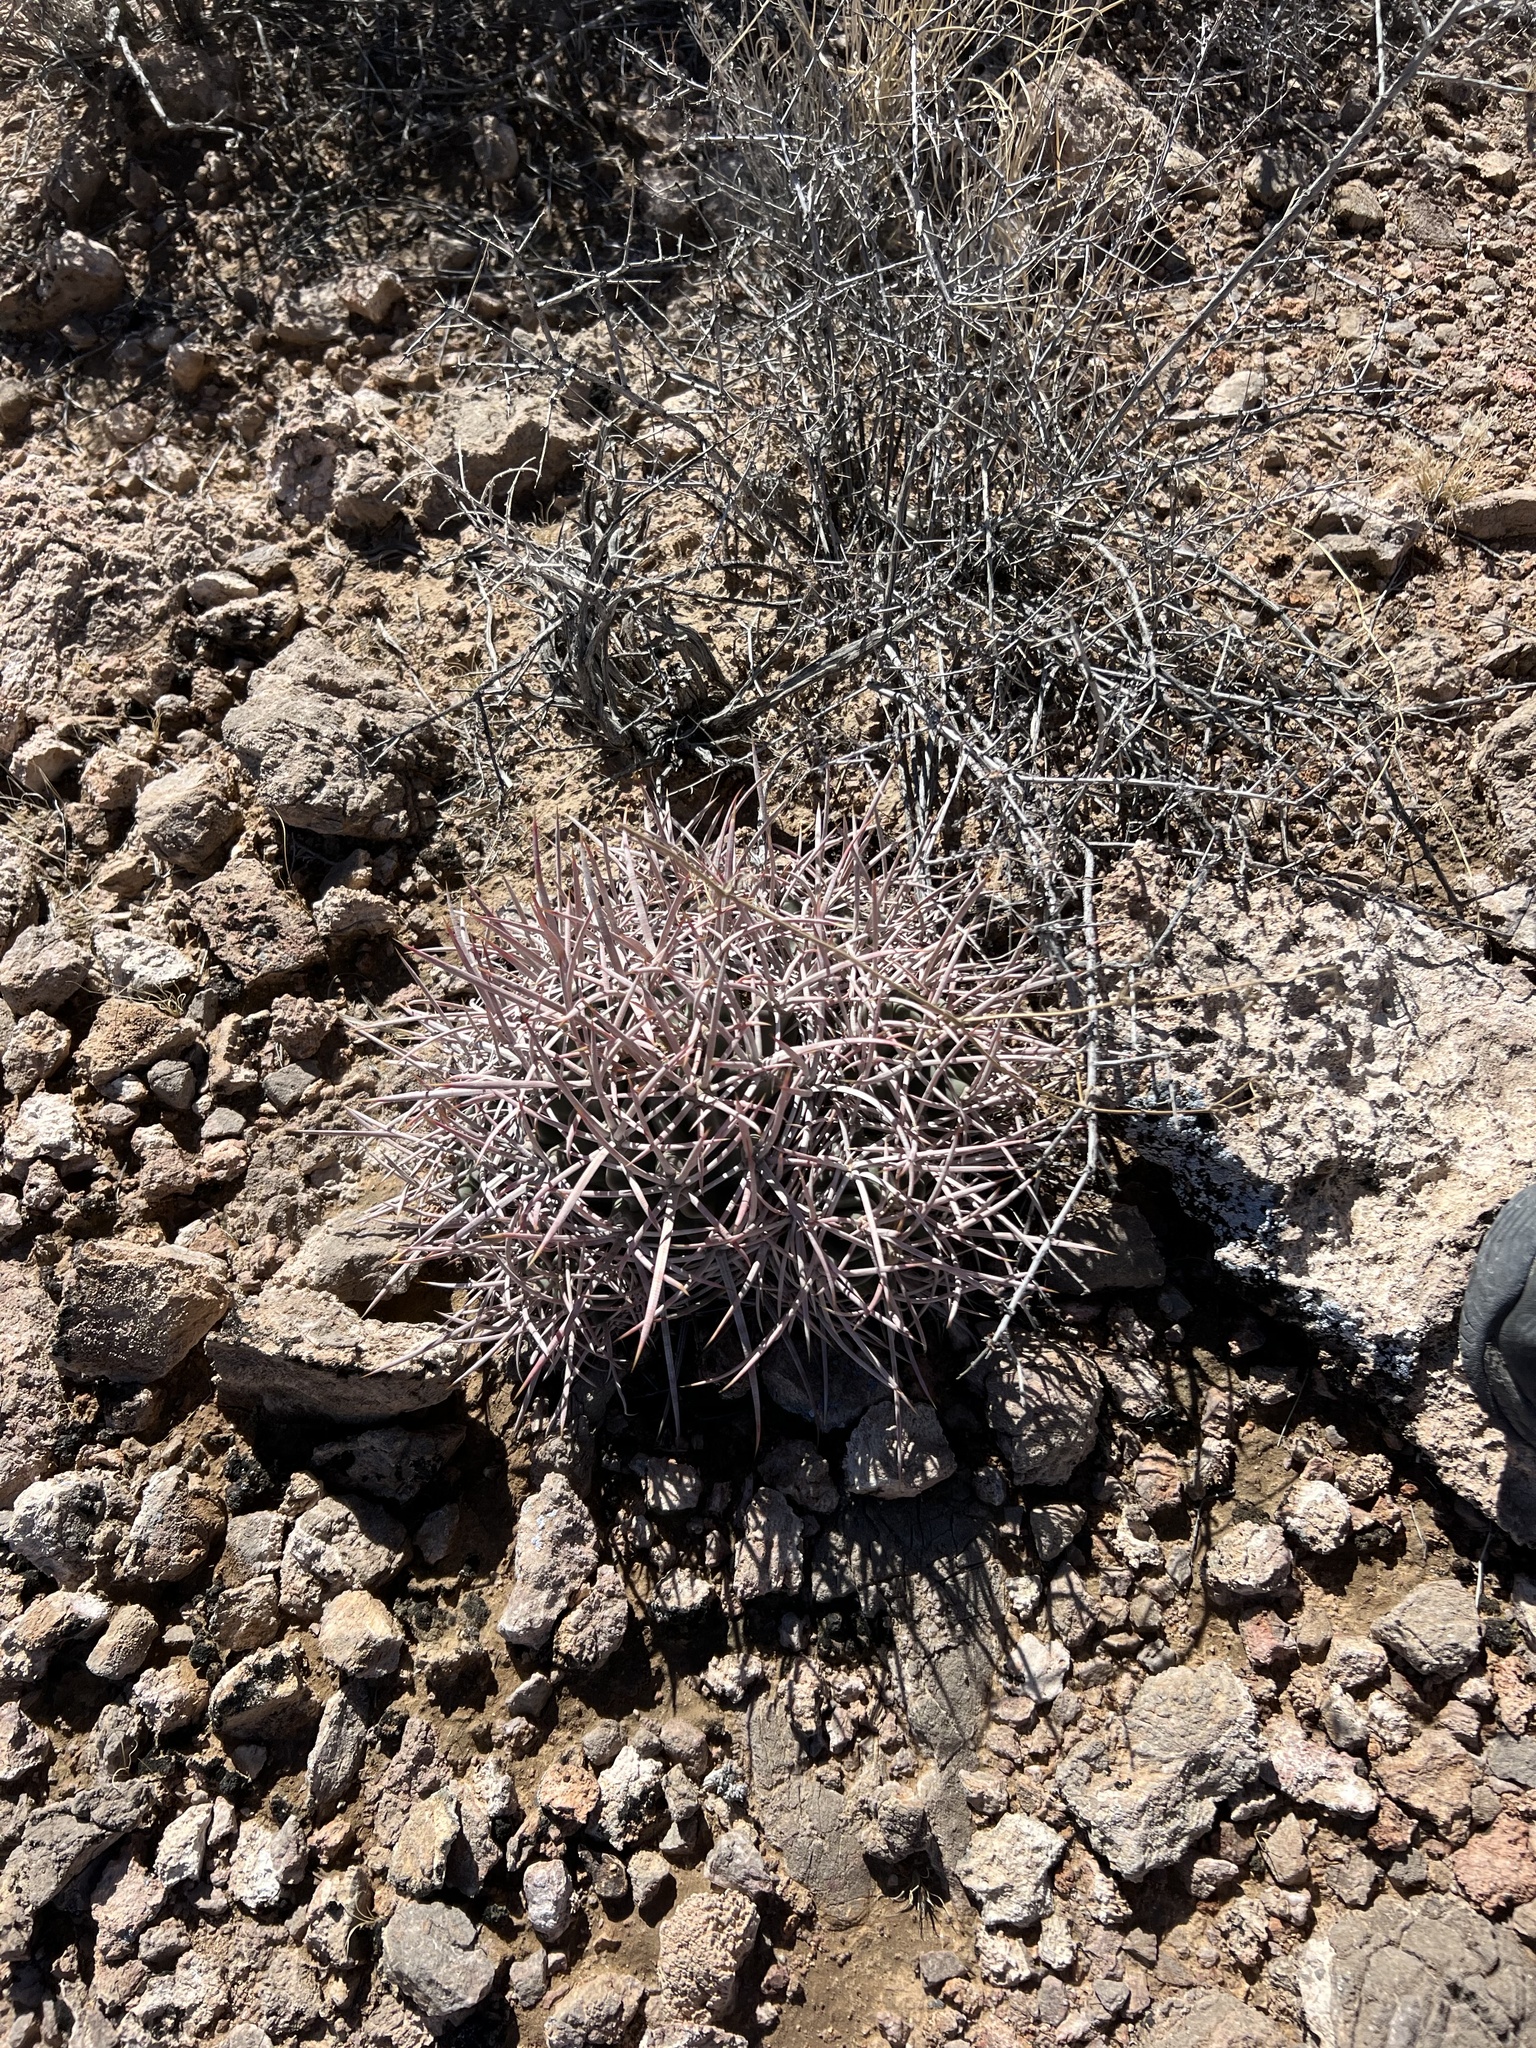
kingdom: Plantae
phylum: Tracheophyta
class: Magnoliopsida
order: Caryophyllales
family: Cactaceae
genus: Echinocactus
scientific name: Echinocactus polycephalus
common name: Cottontop cactus
